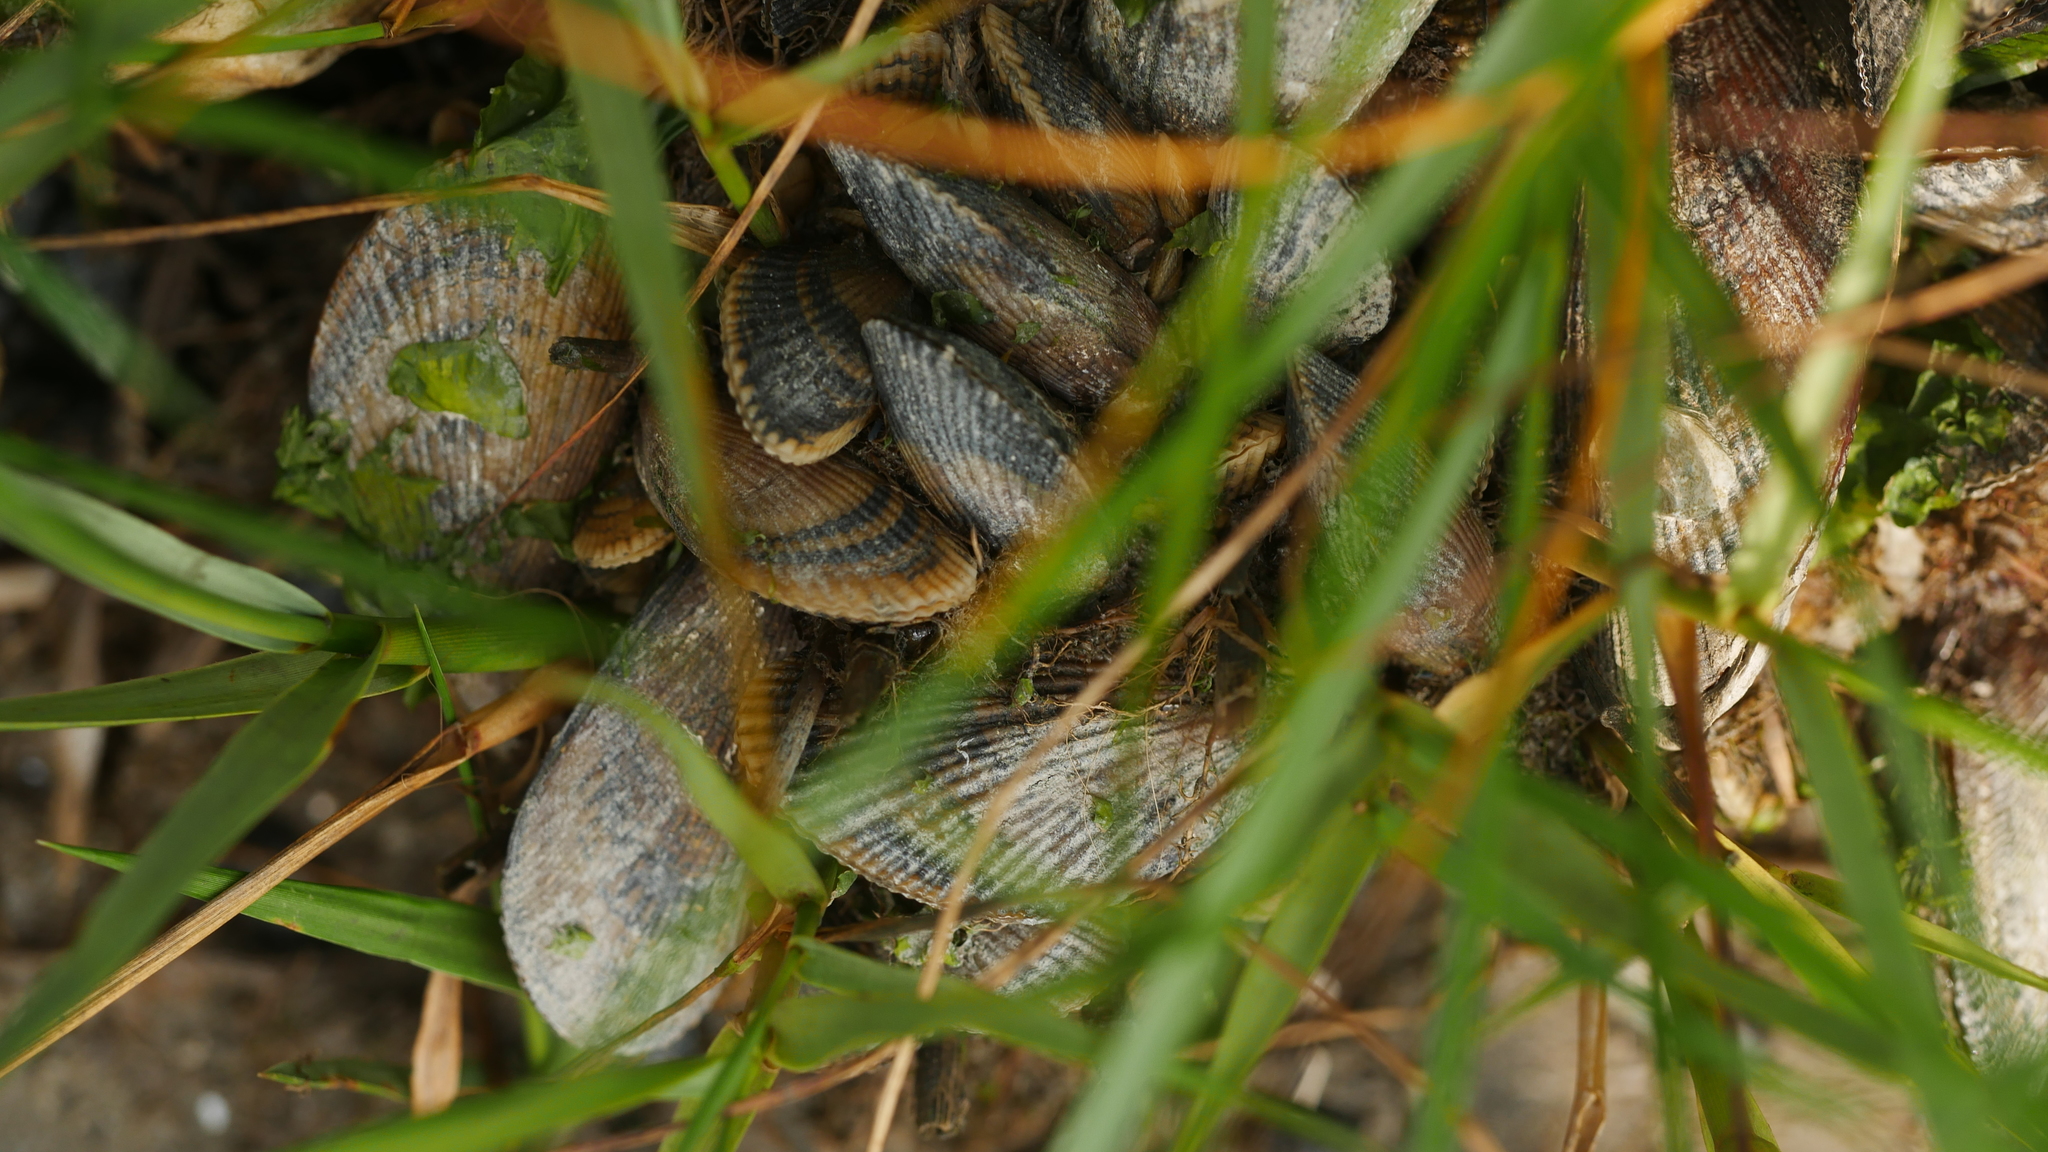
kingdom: Animalia
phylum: Mollusca
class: Bivalvia
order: Mytilida
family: Mytilidae
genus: Geukensia
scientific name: Geukensia demissa
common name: Ribbed mussel
